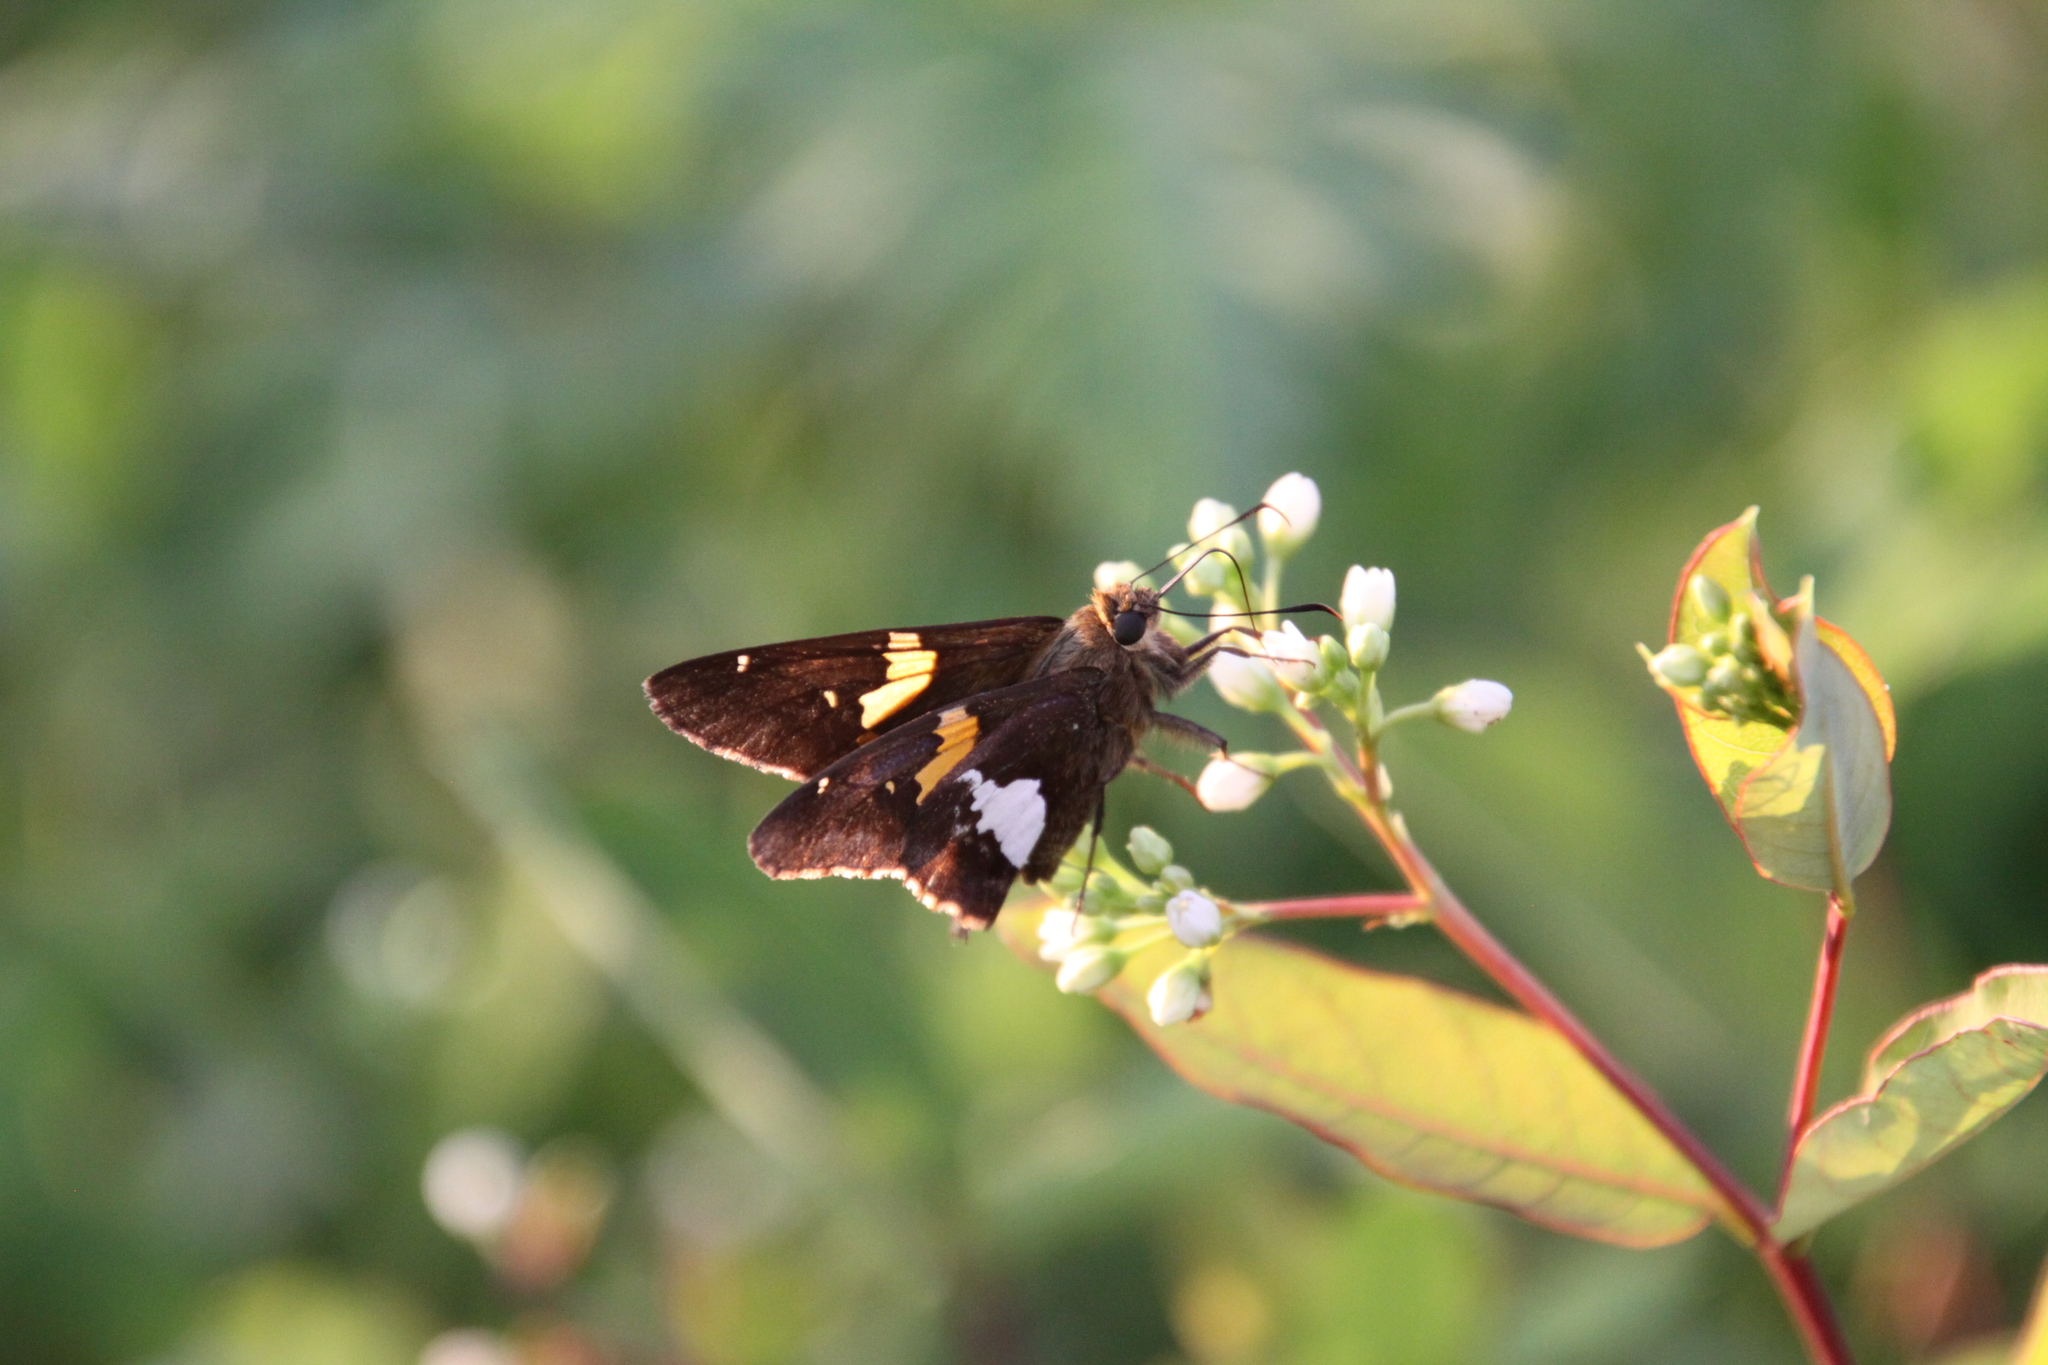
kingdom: Animalia
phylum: Arthropoda
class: Insecta
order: Lepidoptera
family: Hesperiidae
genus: Epargyreus
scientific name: Epargyreus clarus
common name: Silver-spotted skipper
